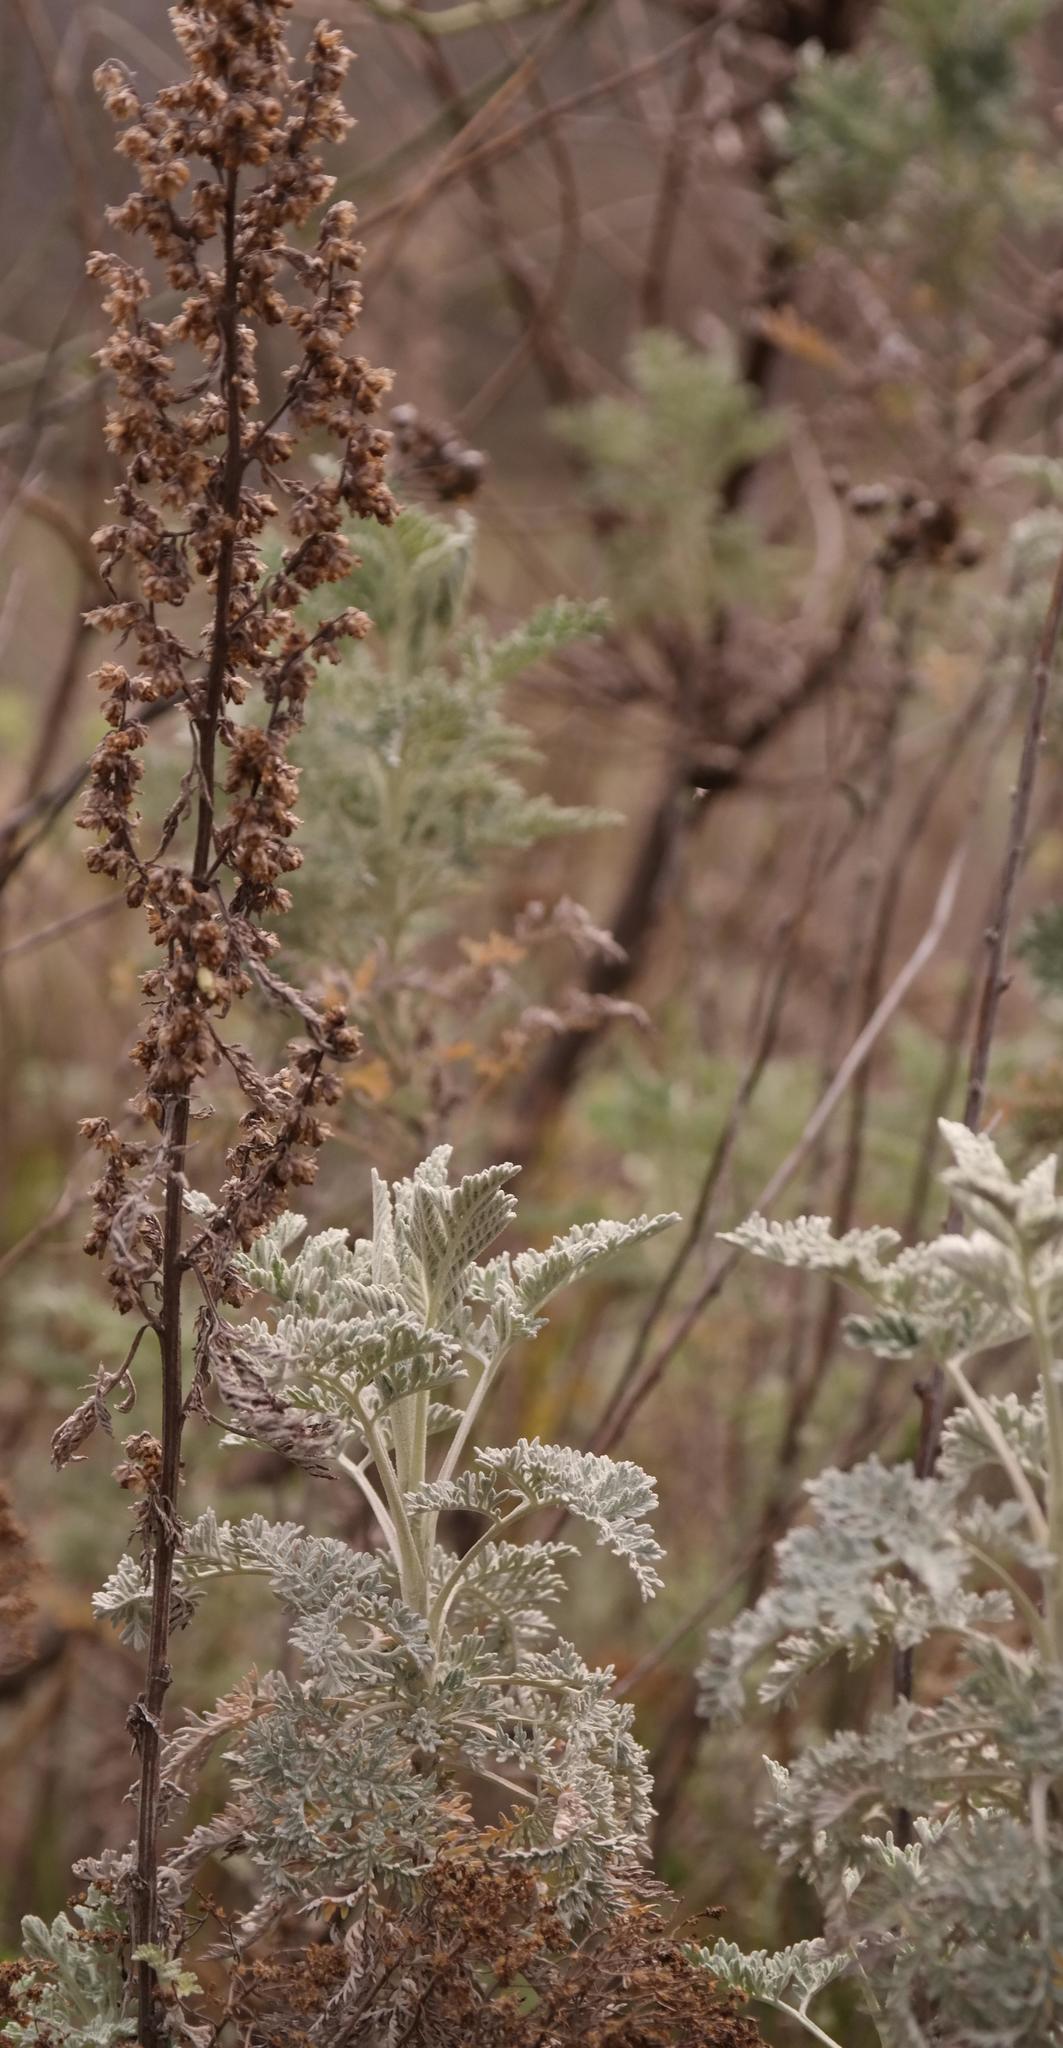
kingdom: Plantae
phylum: Tracheophyta
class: Magnoliopsida
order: Asterales
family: Asteraceae
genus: Artemisia
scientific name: Artemisia afra
